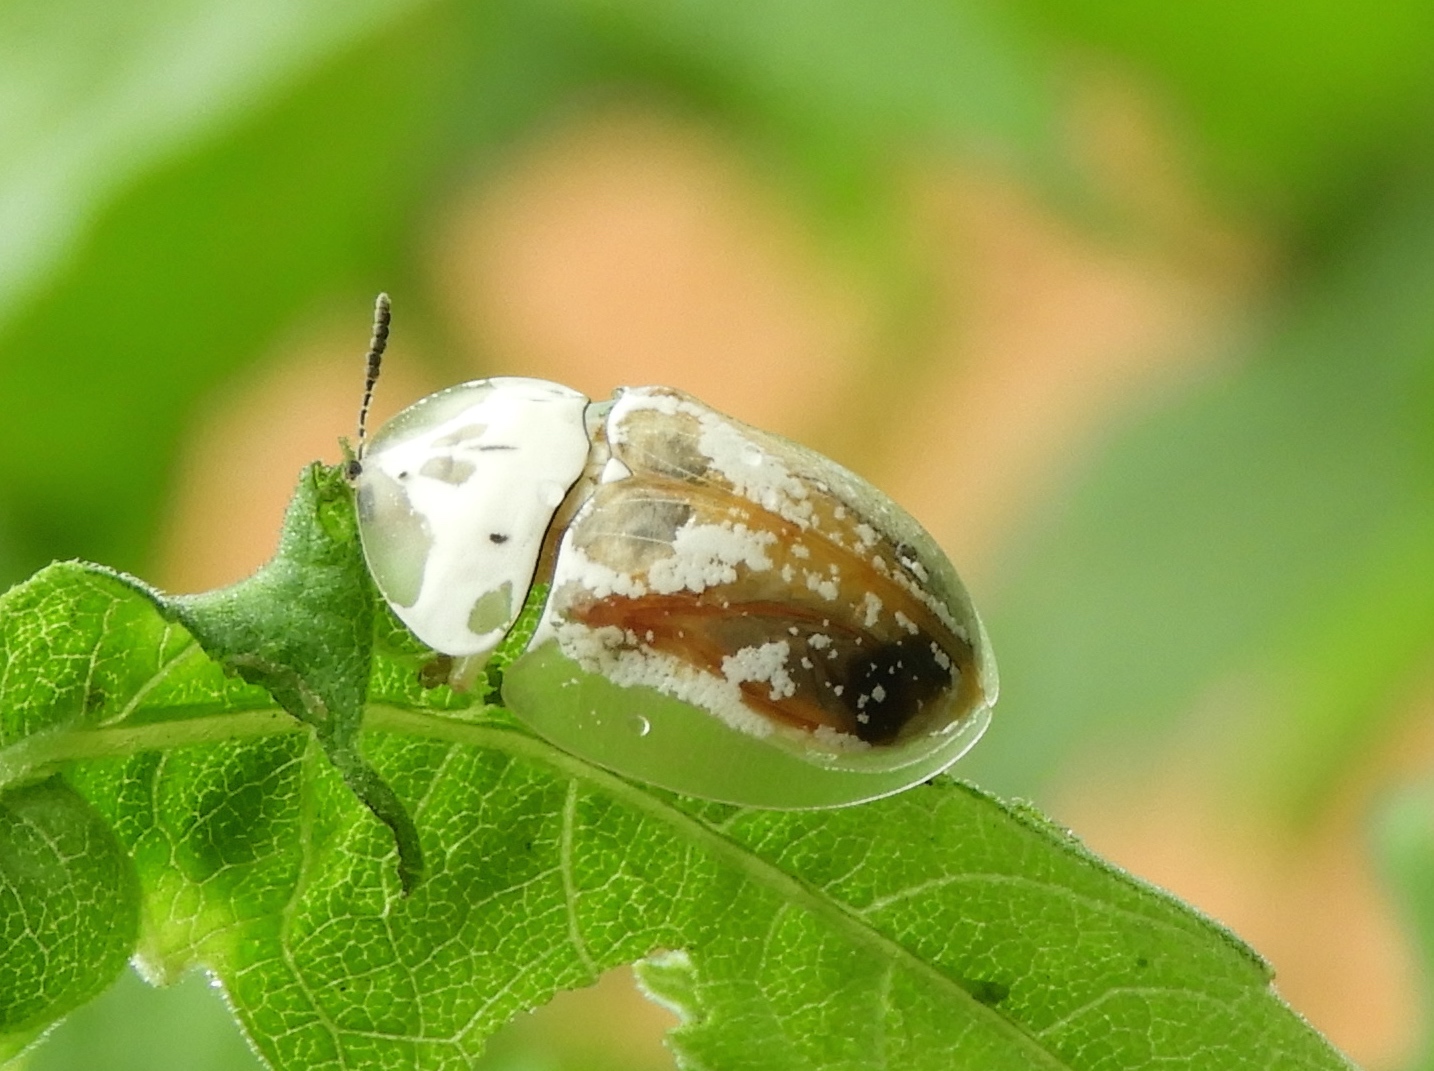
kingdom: Animalia
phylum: Arthropoda
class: Insecta
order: Coleoptera
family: Chrysomelidae
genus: Physonota
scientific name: Physonota
